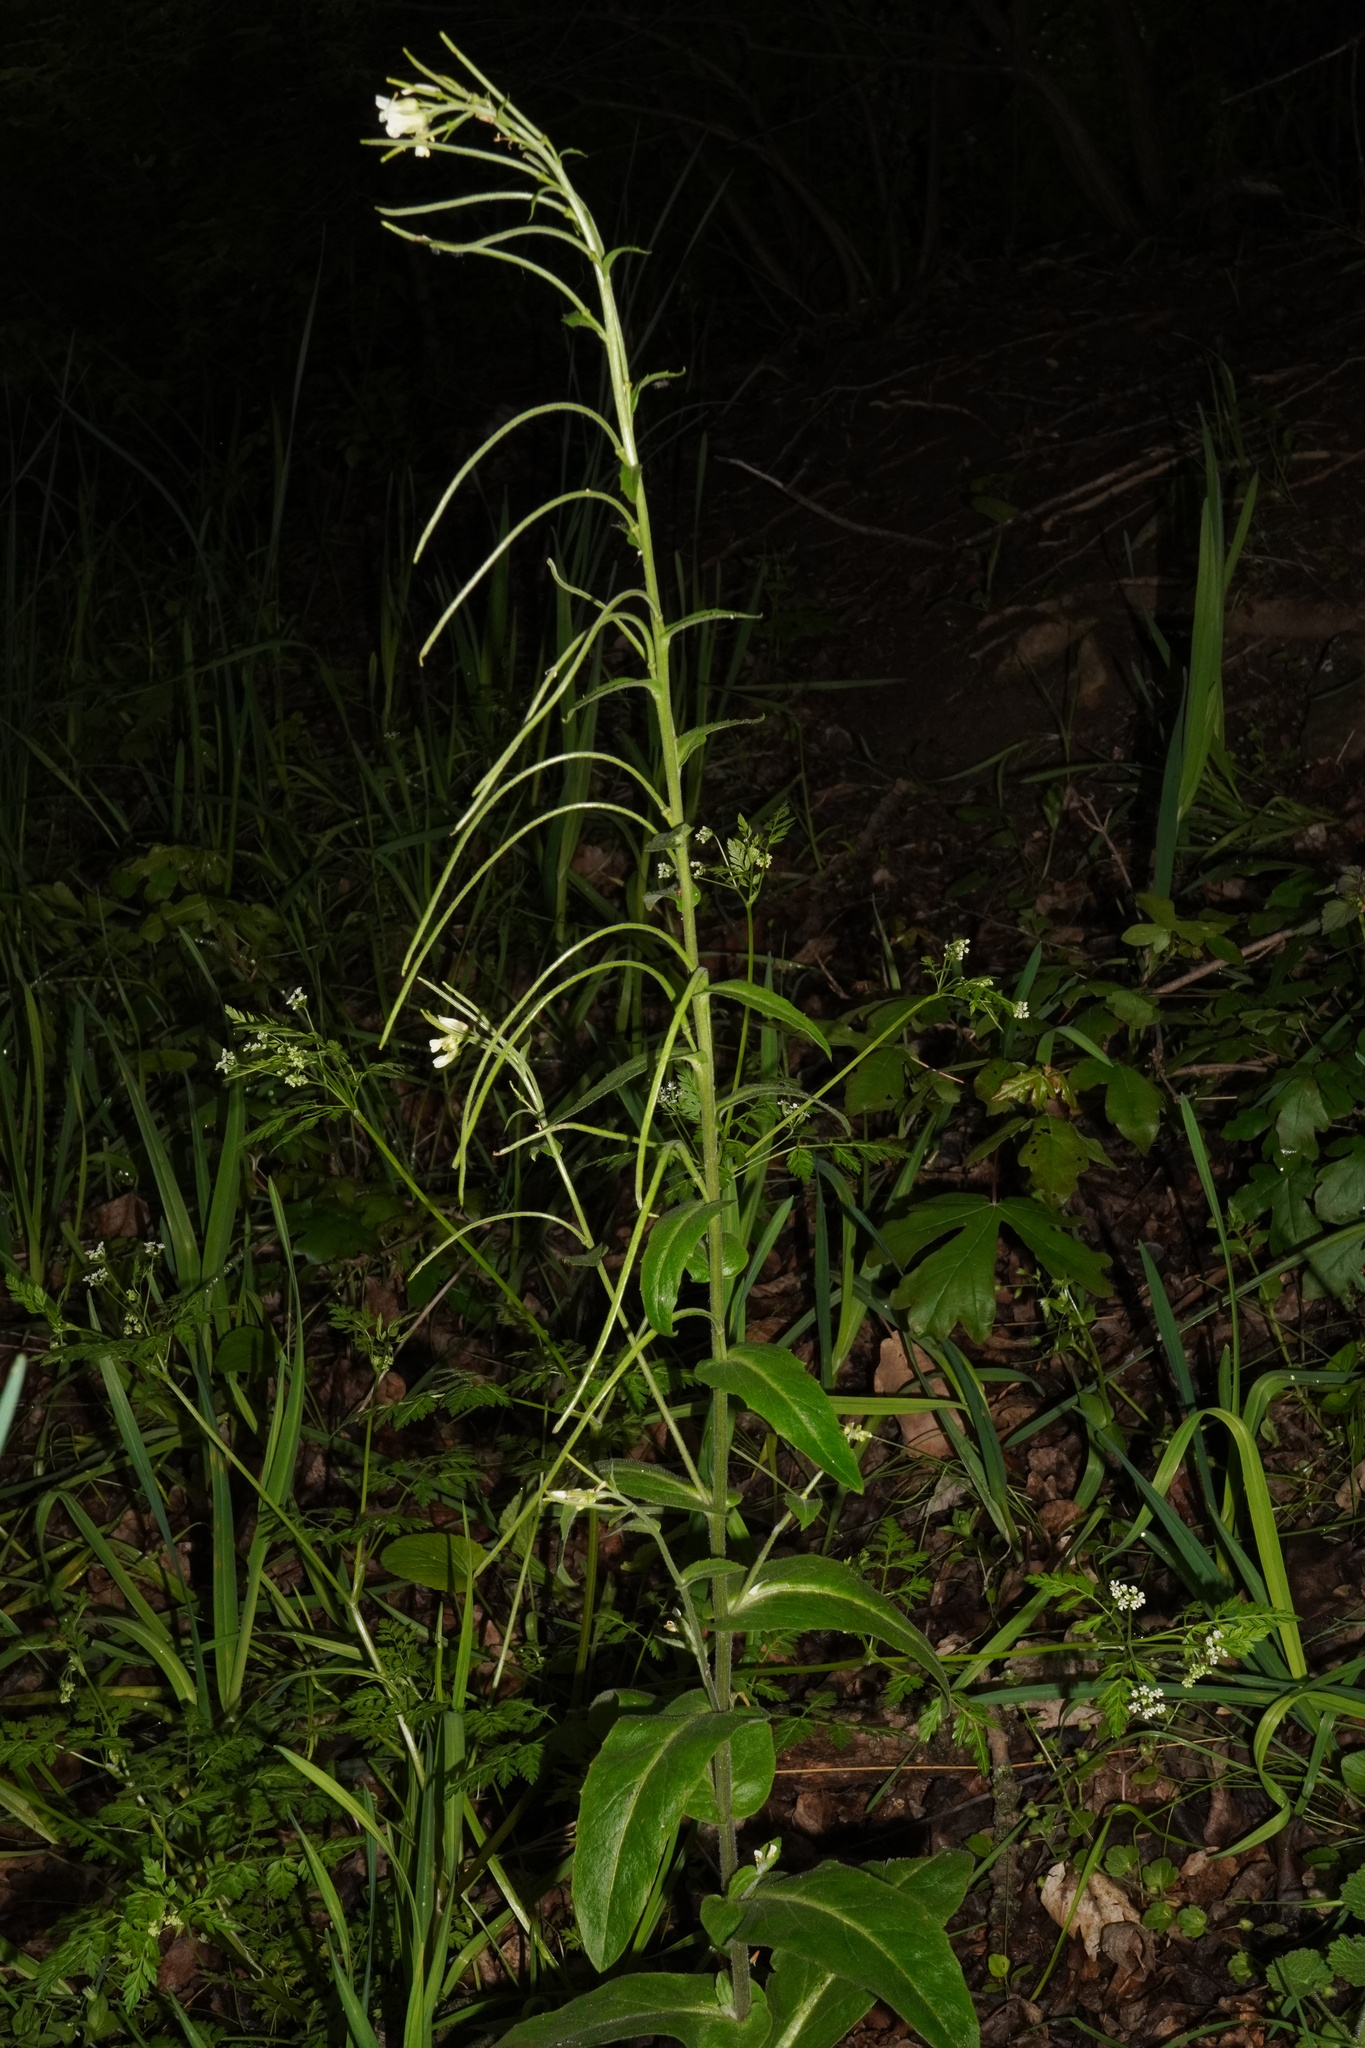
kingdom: Plantae
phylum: Tracheophyta
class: Magnoliopsida
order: Brassicales
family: Brassicaceae
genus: Pseudoturritis
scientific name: Pseudoturritis turrita
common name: Tower cress
